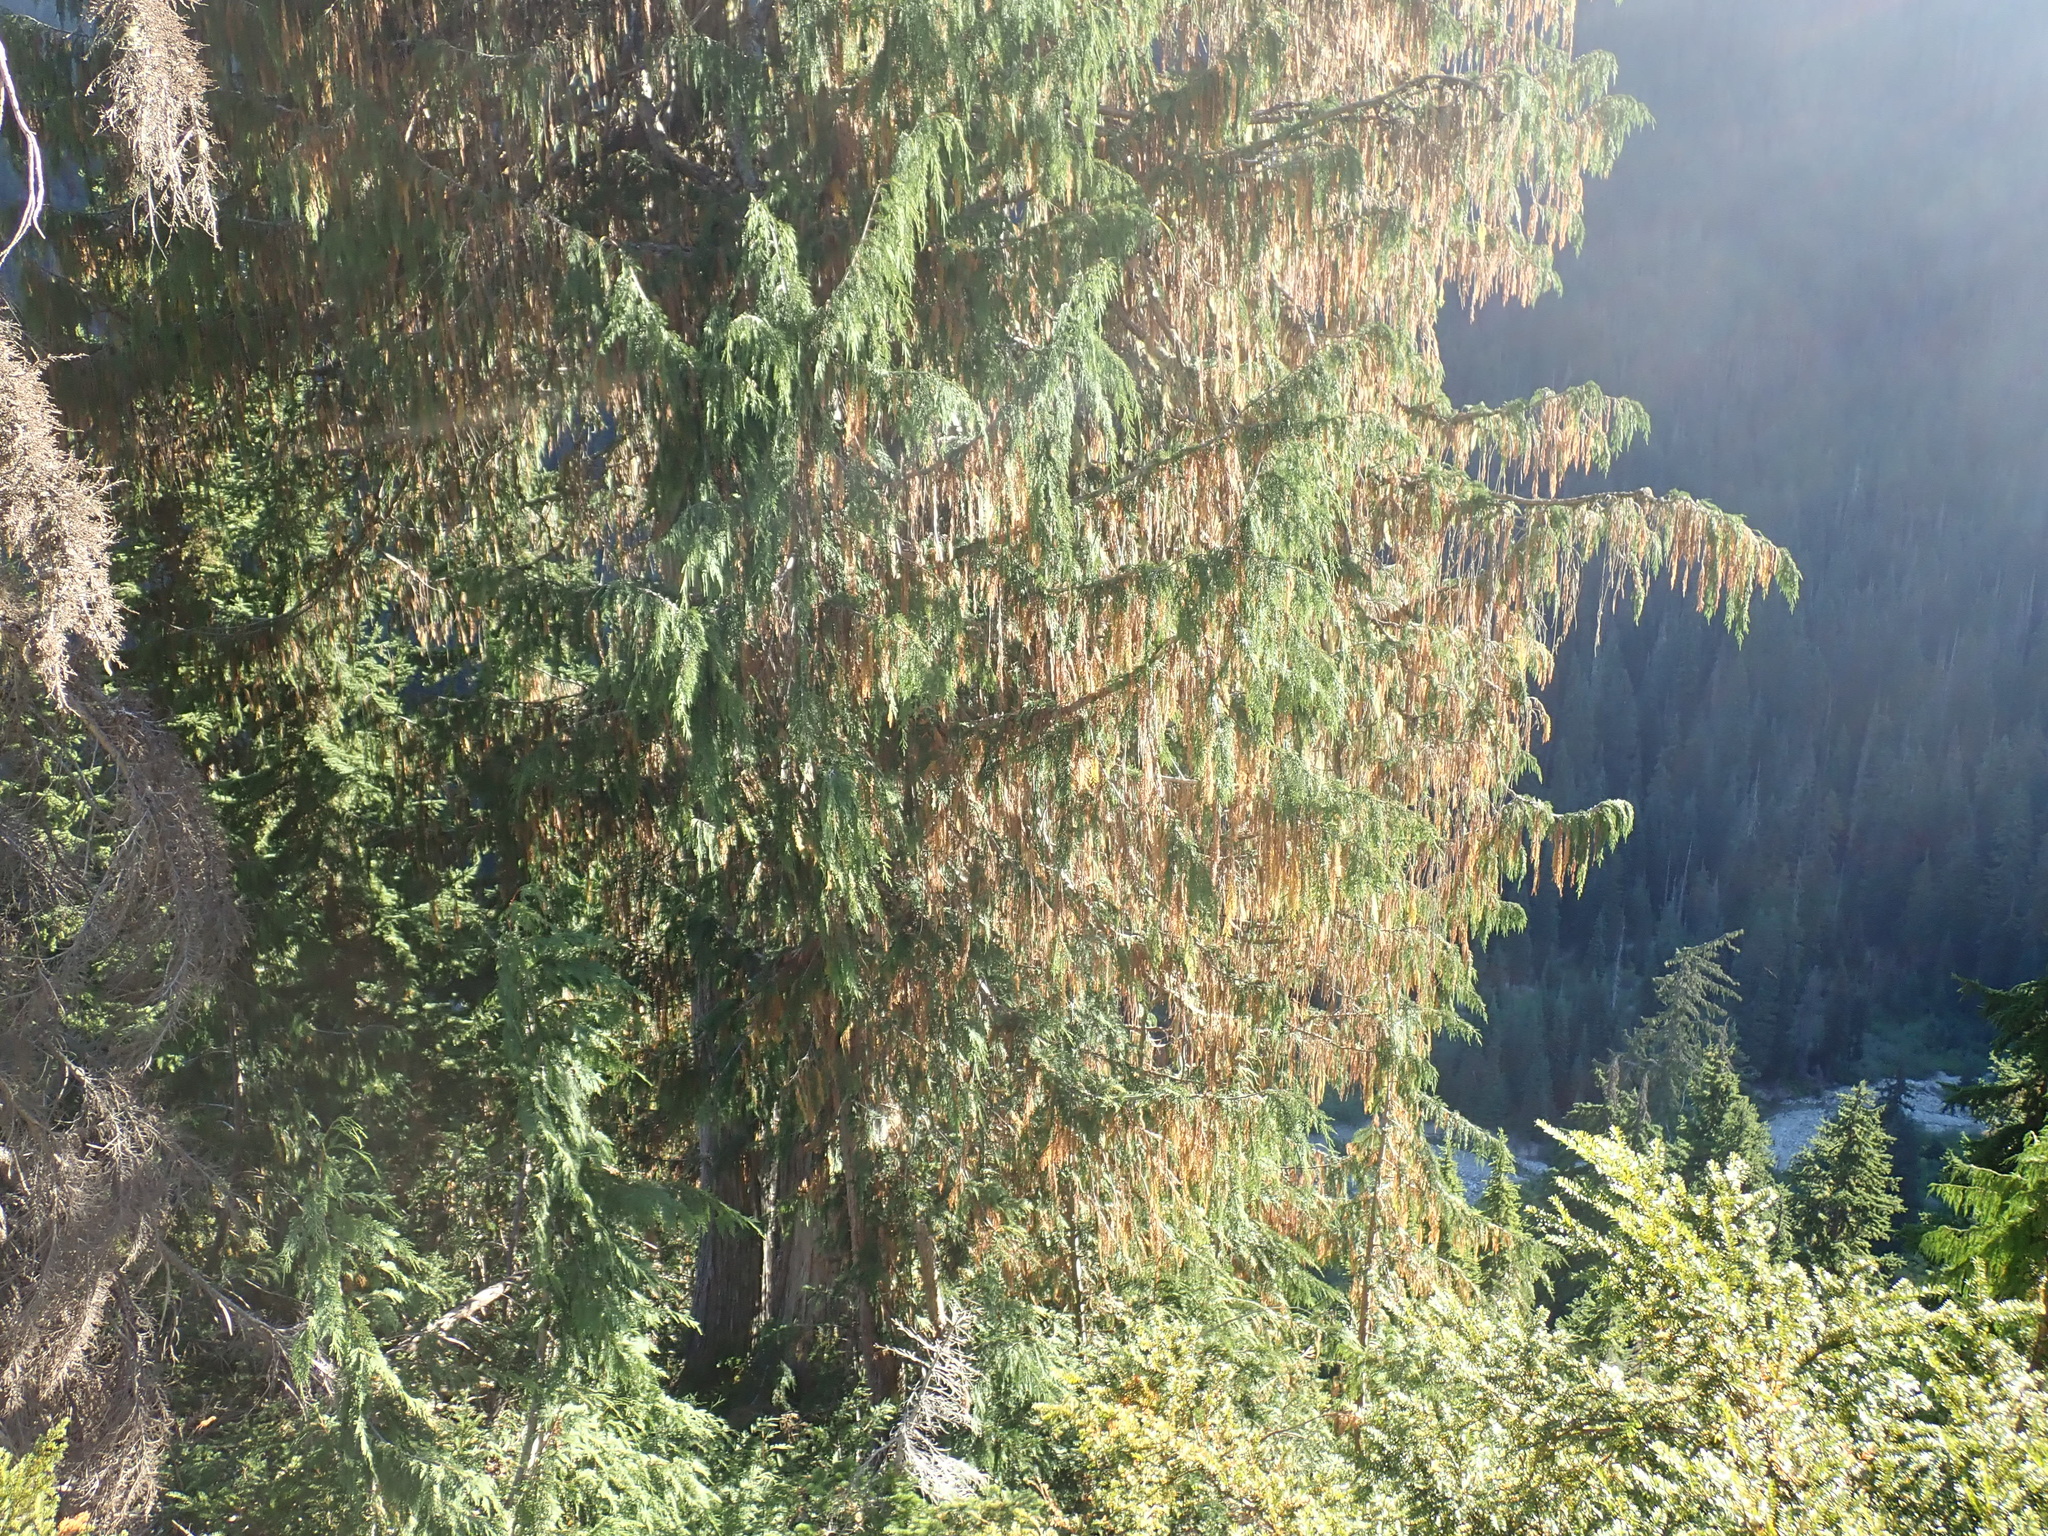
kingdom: Plantae
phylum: Tracheophyta
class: Pinopsida
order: Pinales
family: Cupressaceae
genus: Xanthocyparis
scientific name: Xanthocyparis nootkatensis
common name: Nootka cypress
